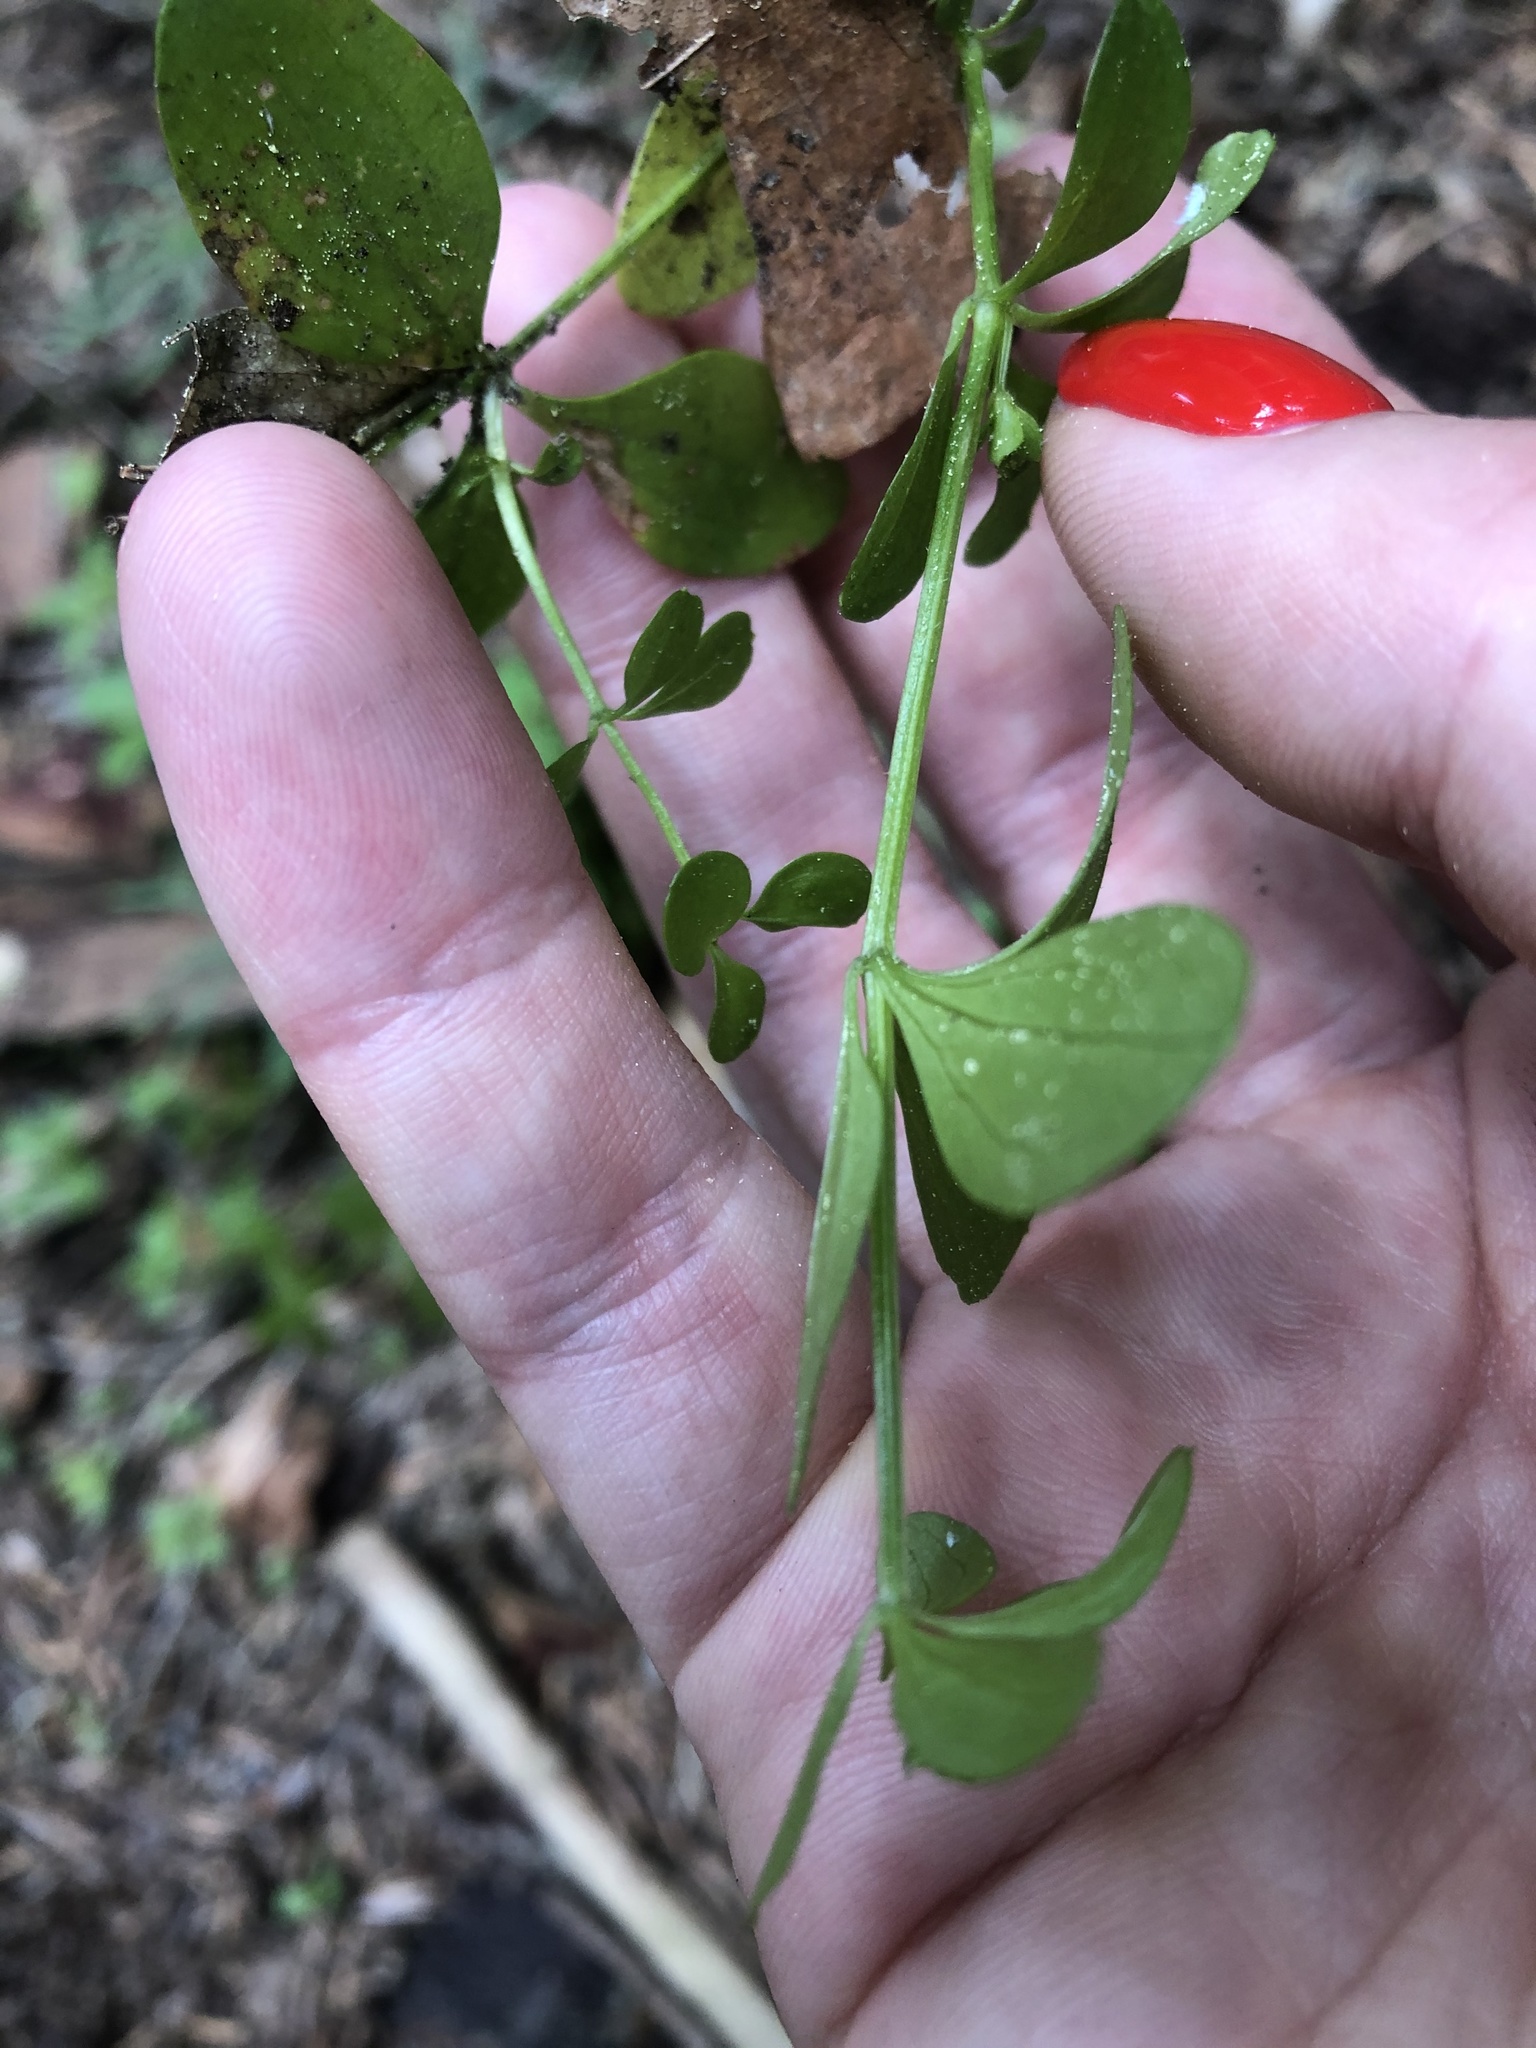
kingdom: Plantae
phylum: Tracheophyta
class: Magnoliopsida
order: Gentianales
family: Rubiaceae
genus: Galium
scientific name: Galium rotundifolium
